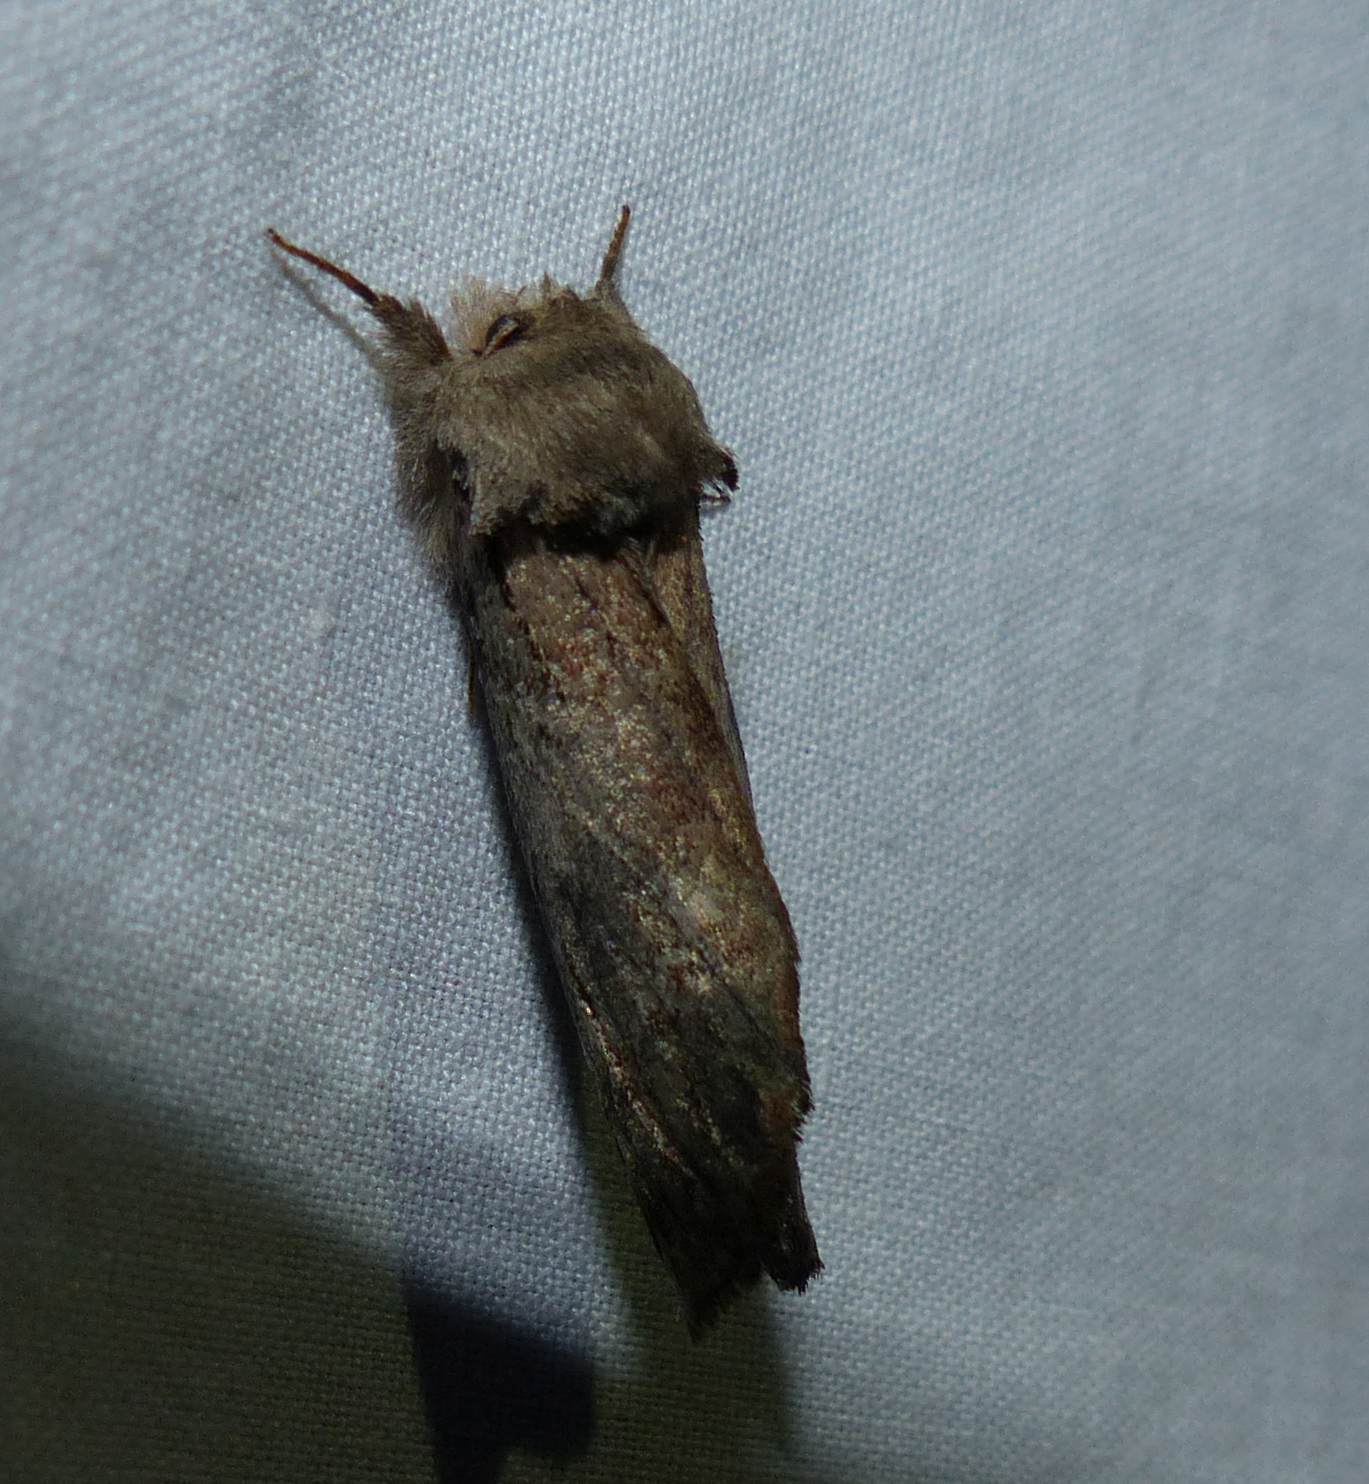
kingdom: Animalia
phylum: Arthropoda
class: Insecta
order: Lepidoptera
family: Notodontidae
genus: Schizura
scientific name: Schizura
